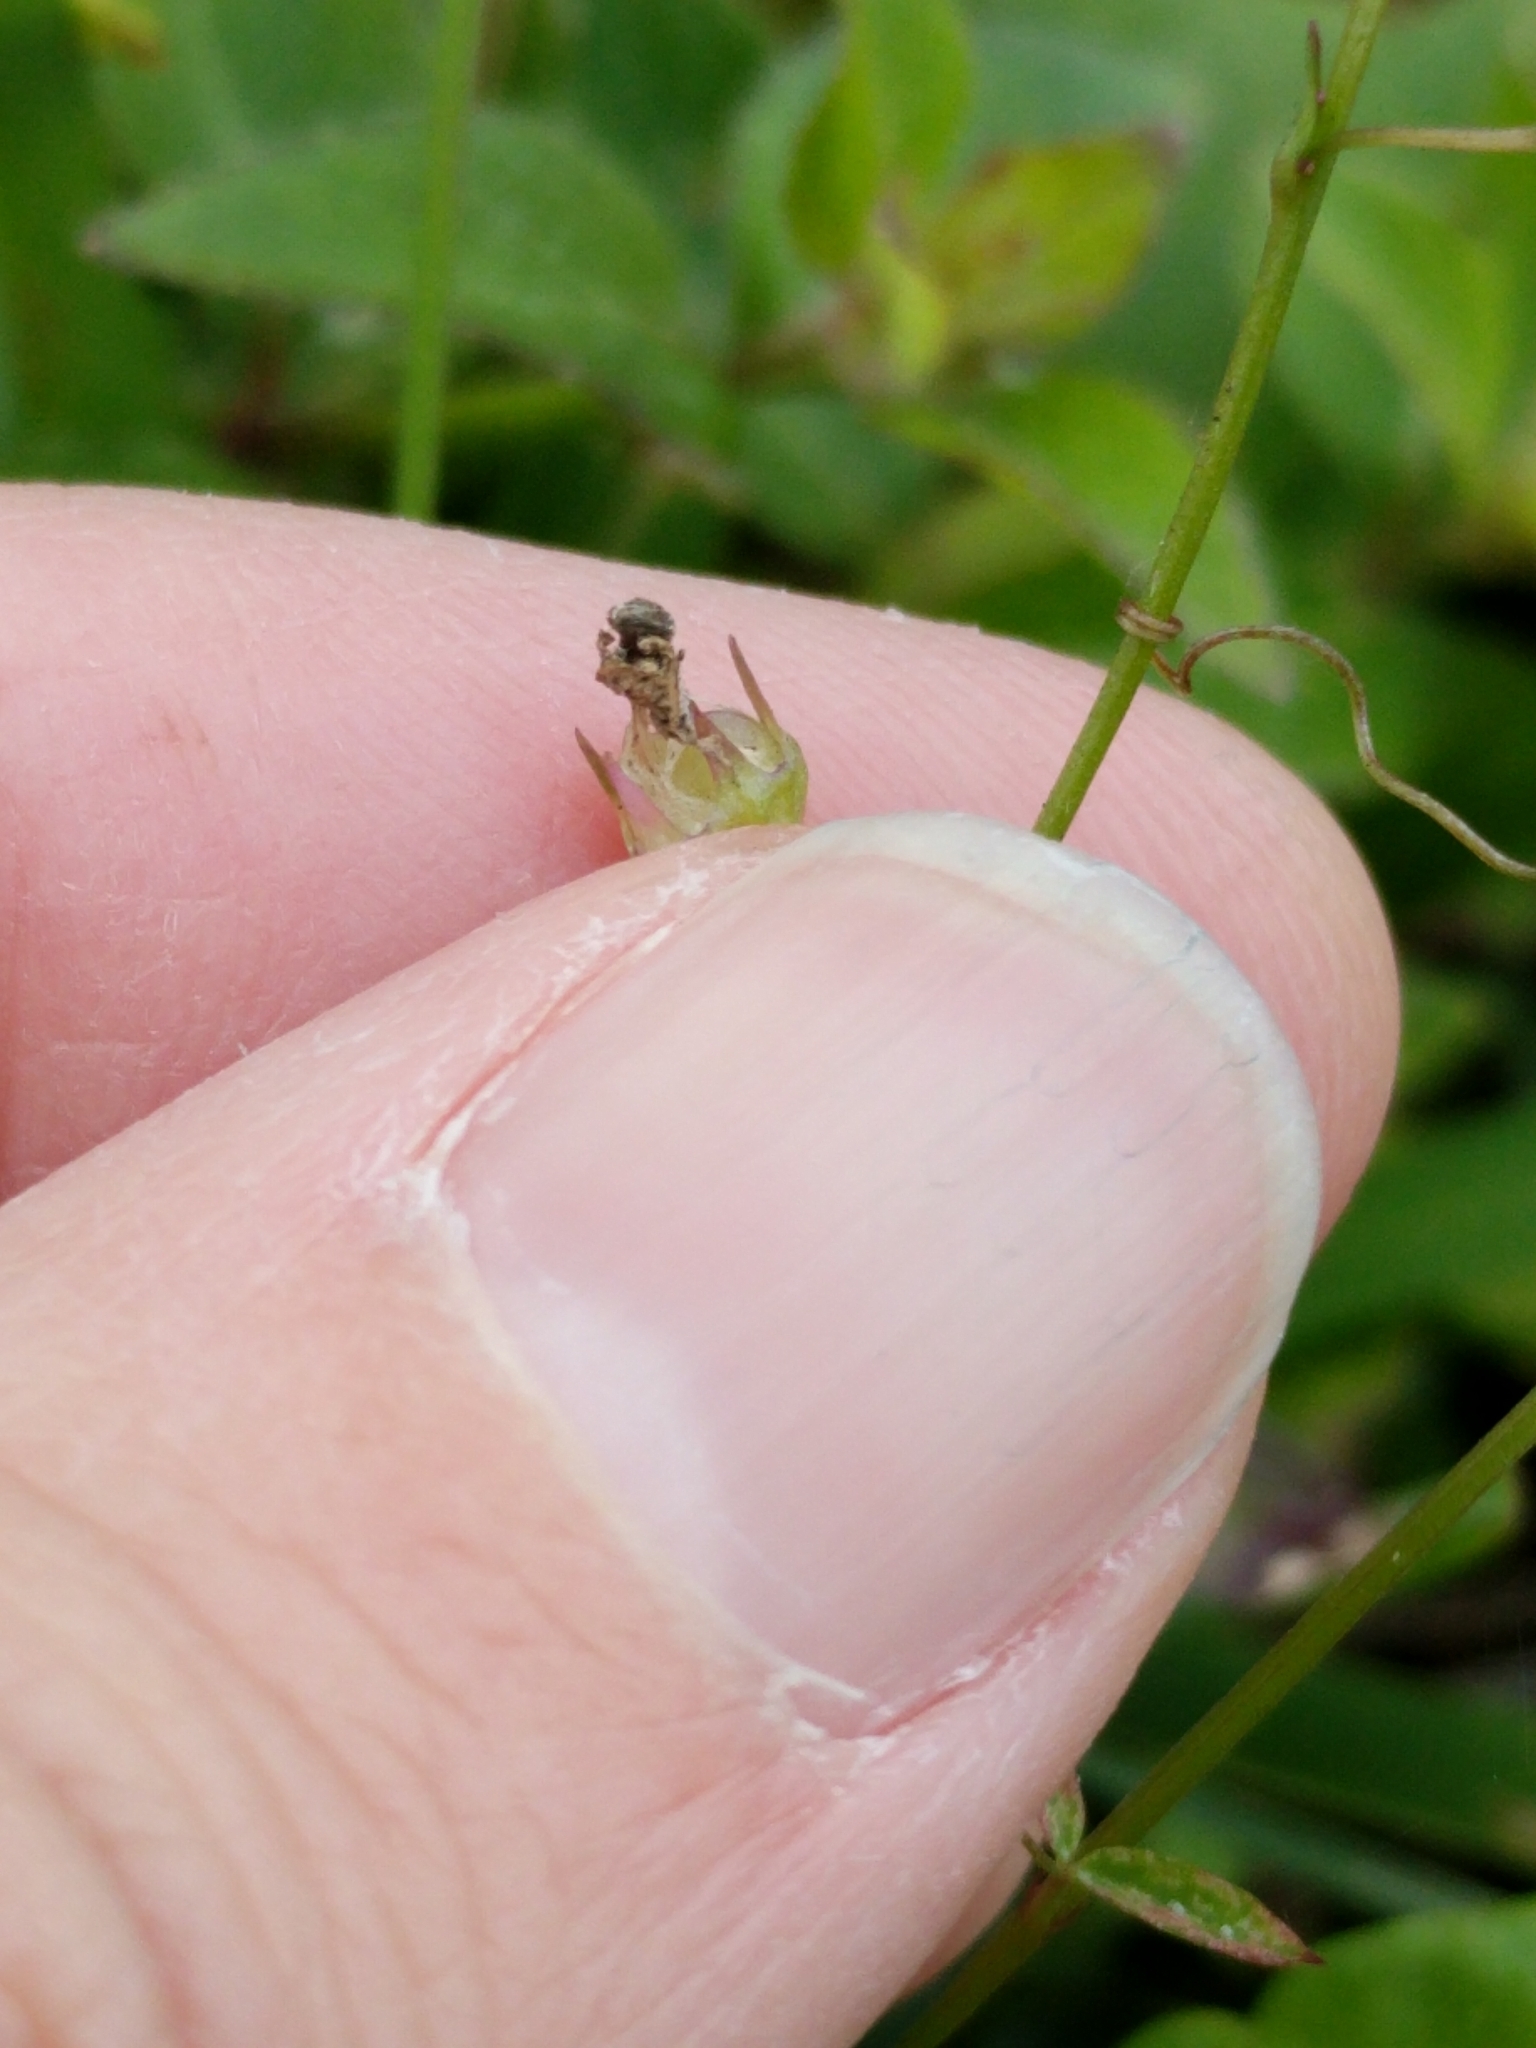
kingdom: Plantae
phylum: Tracheophyta
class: Magnoliopsida
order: Asterales
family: Campanulaceae
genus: Lobelia
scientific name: Lobelia feayana
